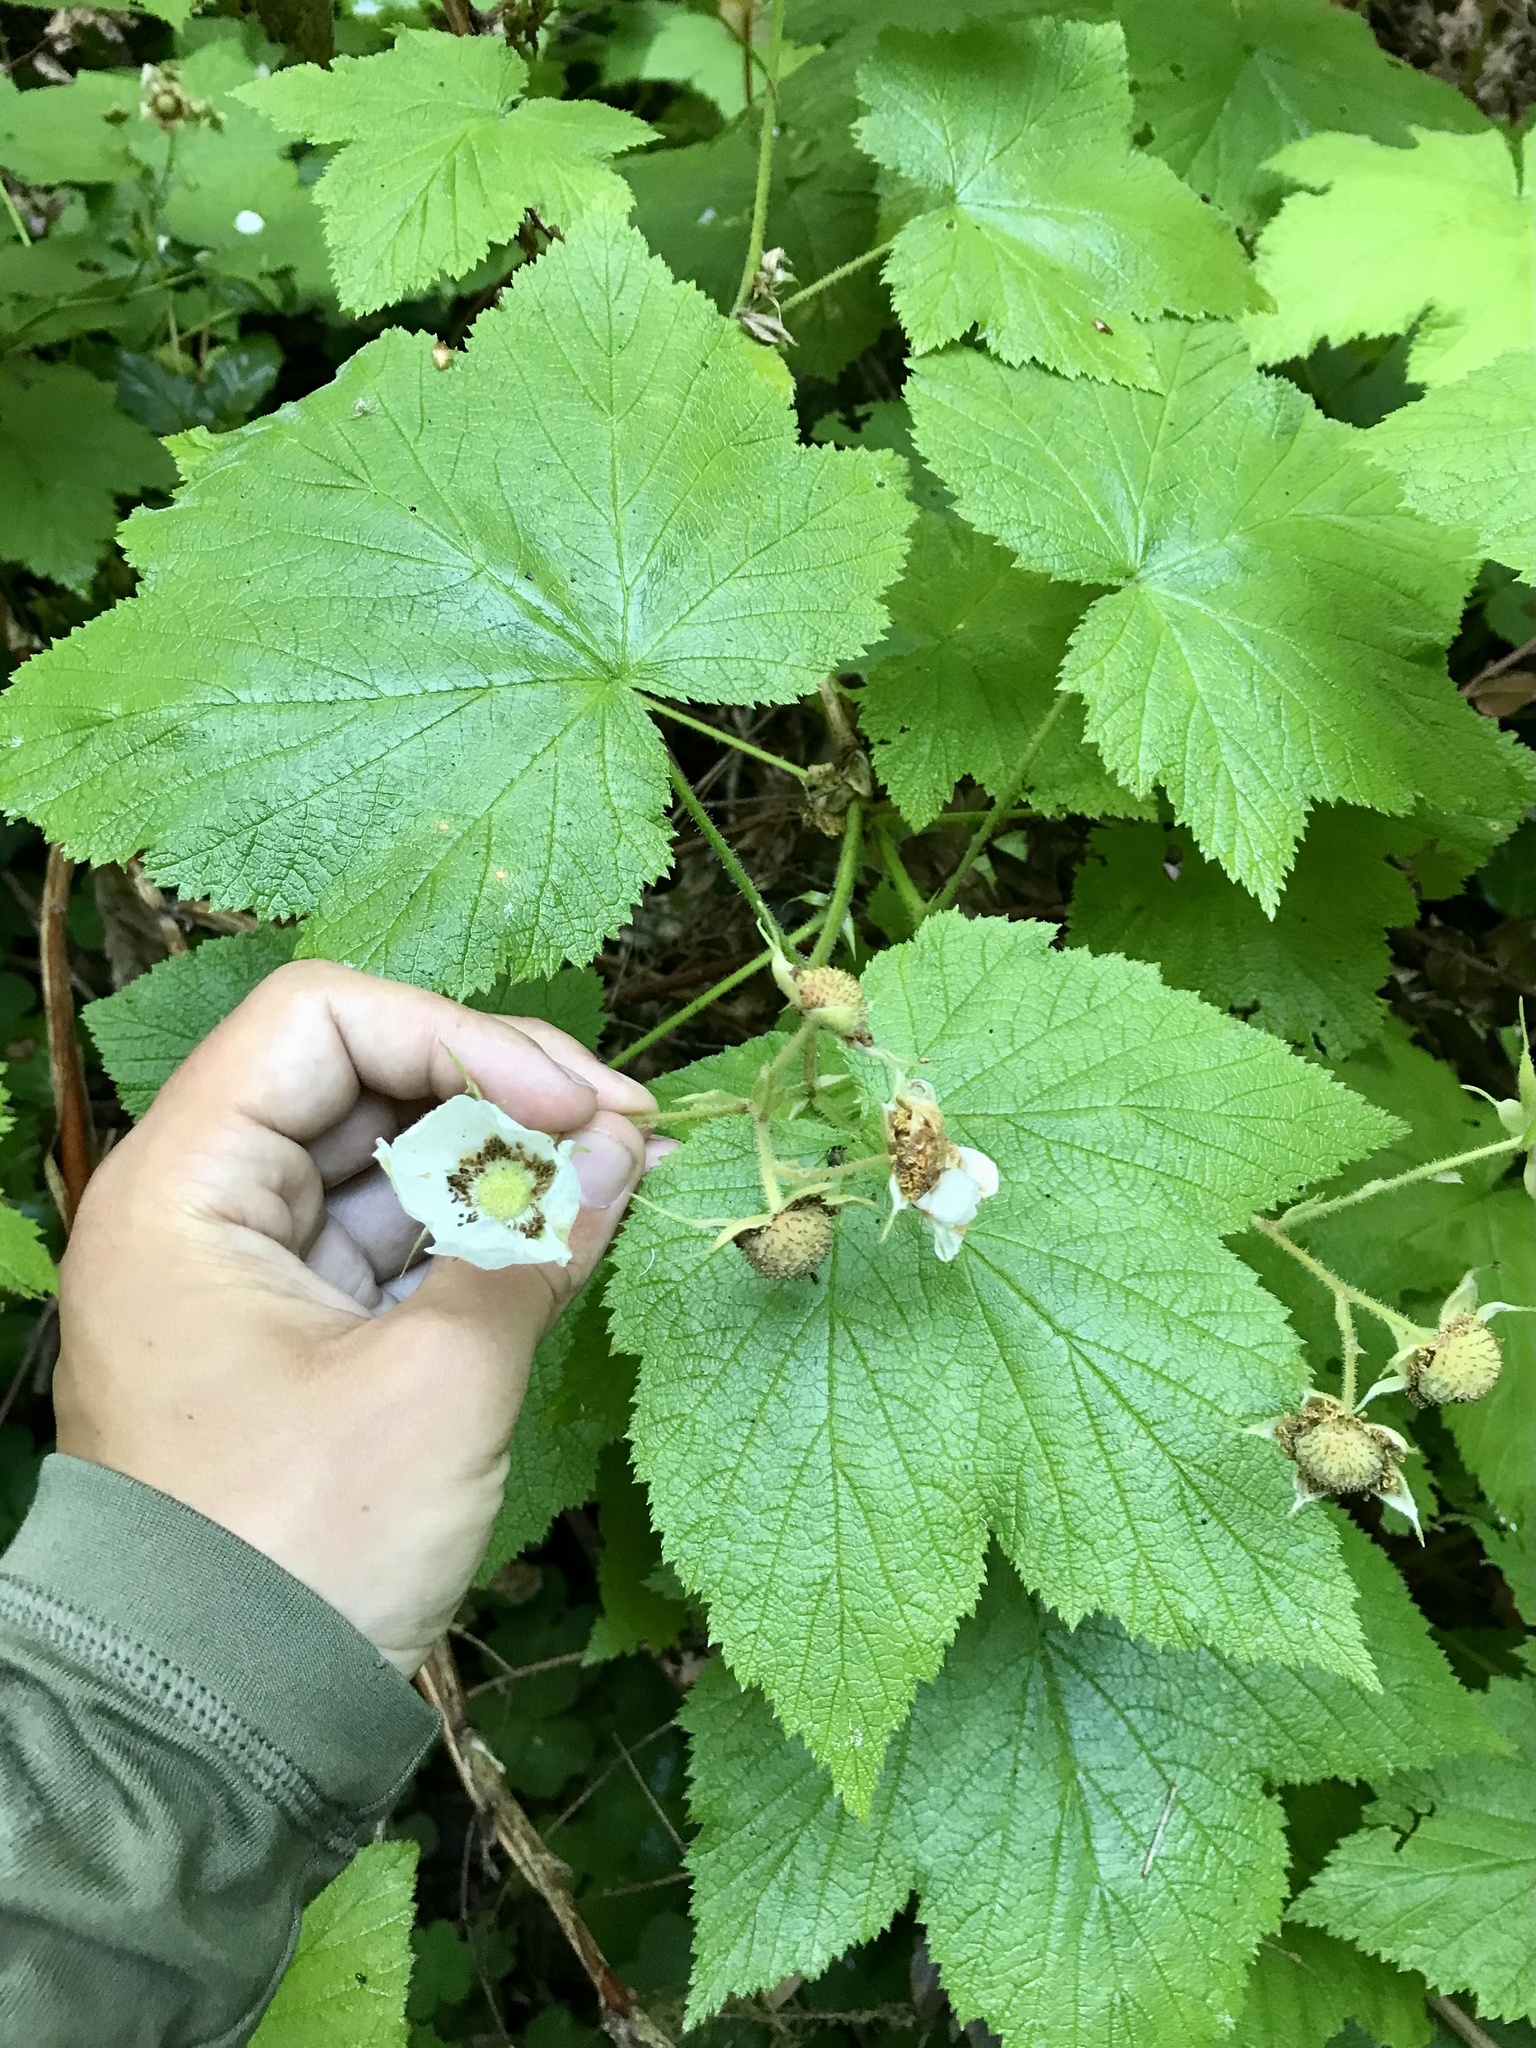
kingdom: Plantae
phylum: Tracheophyta
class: Magnoliopsida
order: Rosales
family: Rosaceae
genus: Rubus
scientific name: Rubus parviflorus
